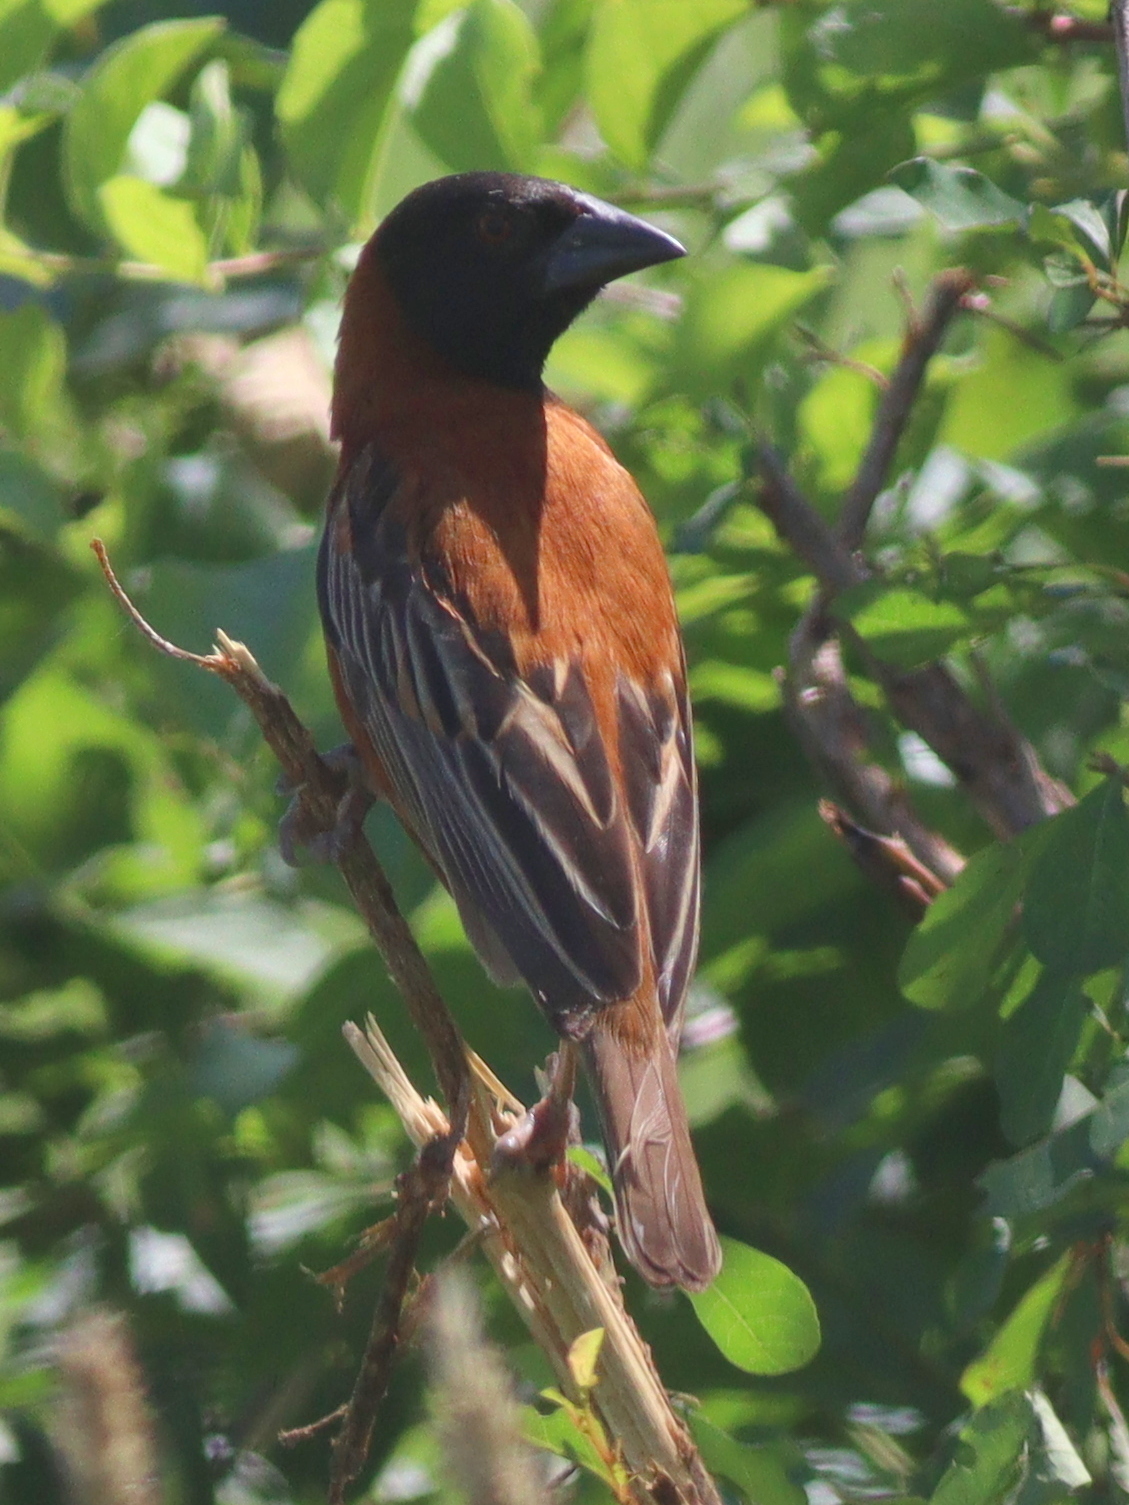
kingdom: Animalia
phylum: Chordata
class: Aves
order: Passeriformes
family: Ploceidae
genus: Ploceus
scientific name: Ploceus rubiginosus
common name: Chestnut weaver
